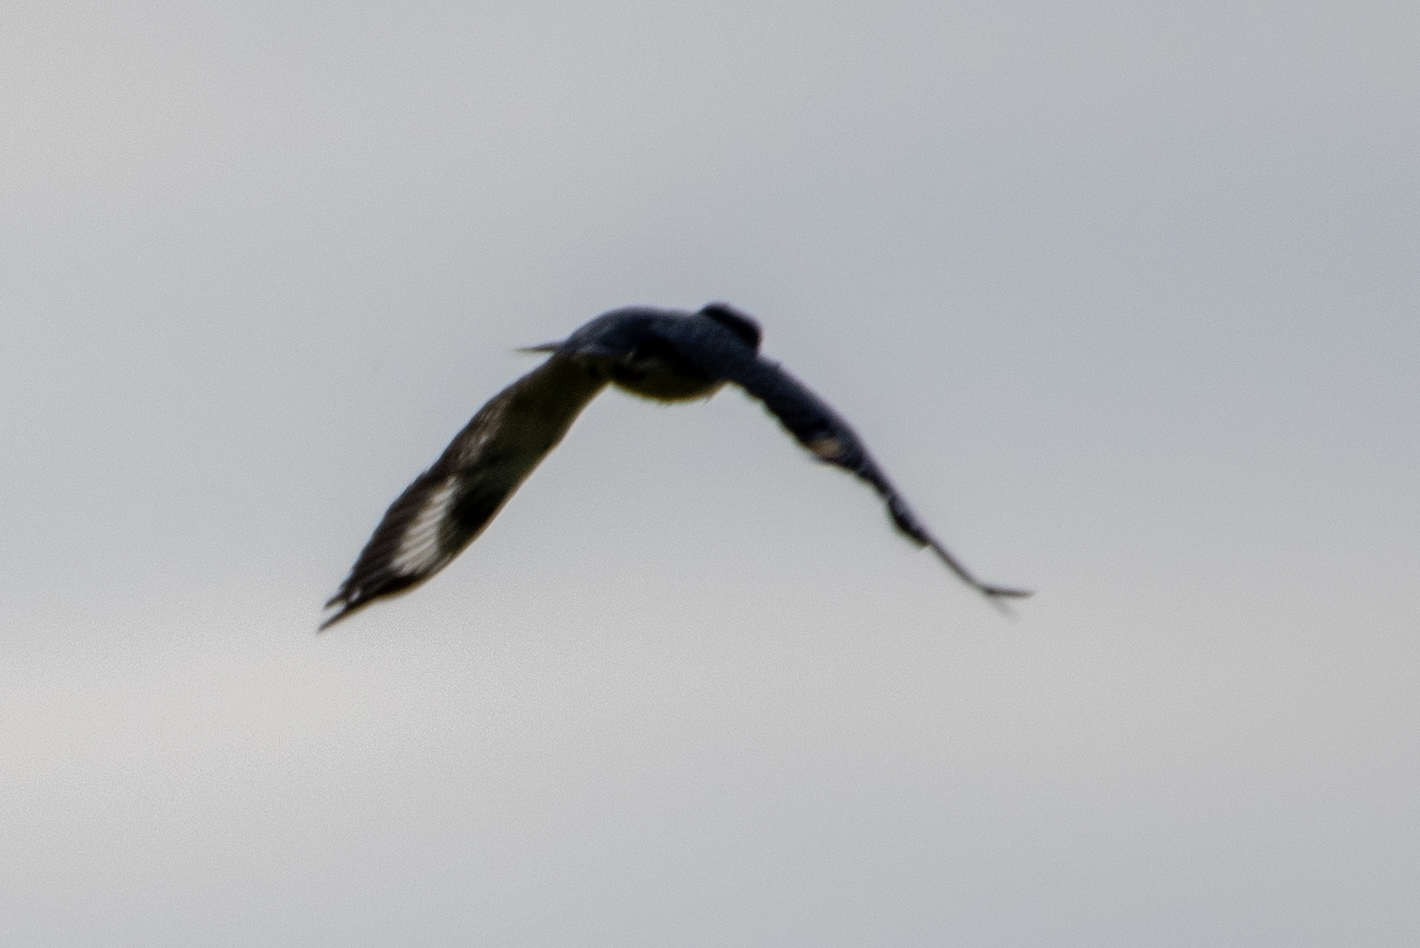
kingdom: Animalia
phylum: Chordata
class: Aves
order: Coraciiformes
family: Alcedinidae
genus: Megaceryle
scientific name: Megaceryle alcyon
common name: Belted kingfisher
